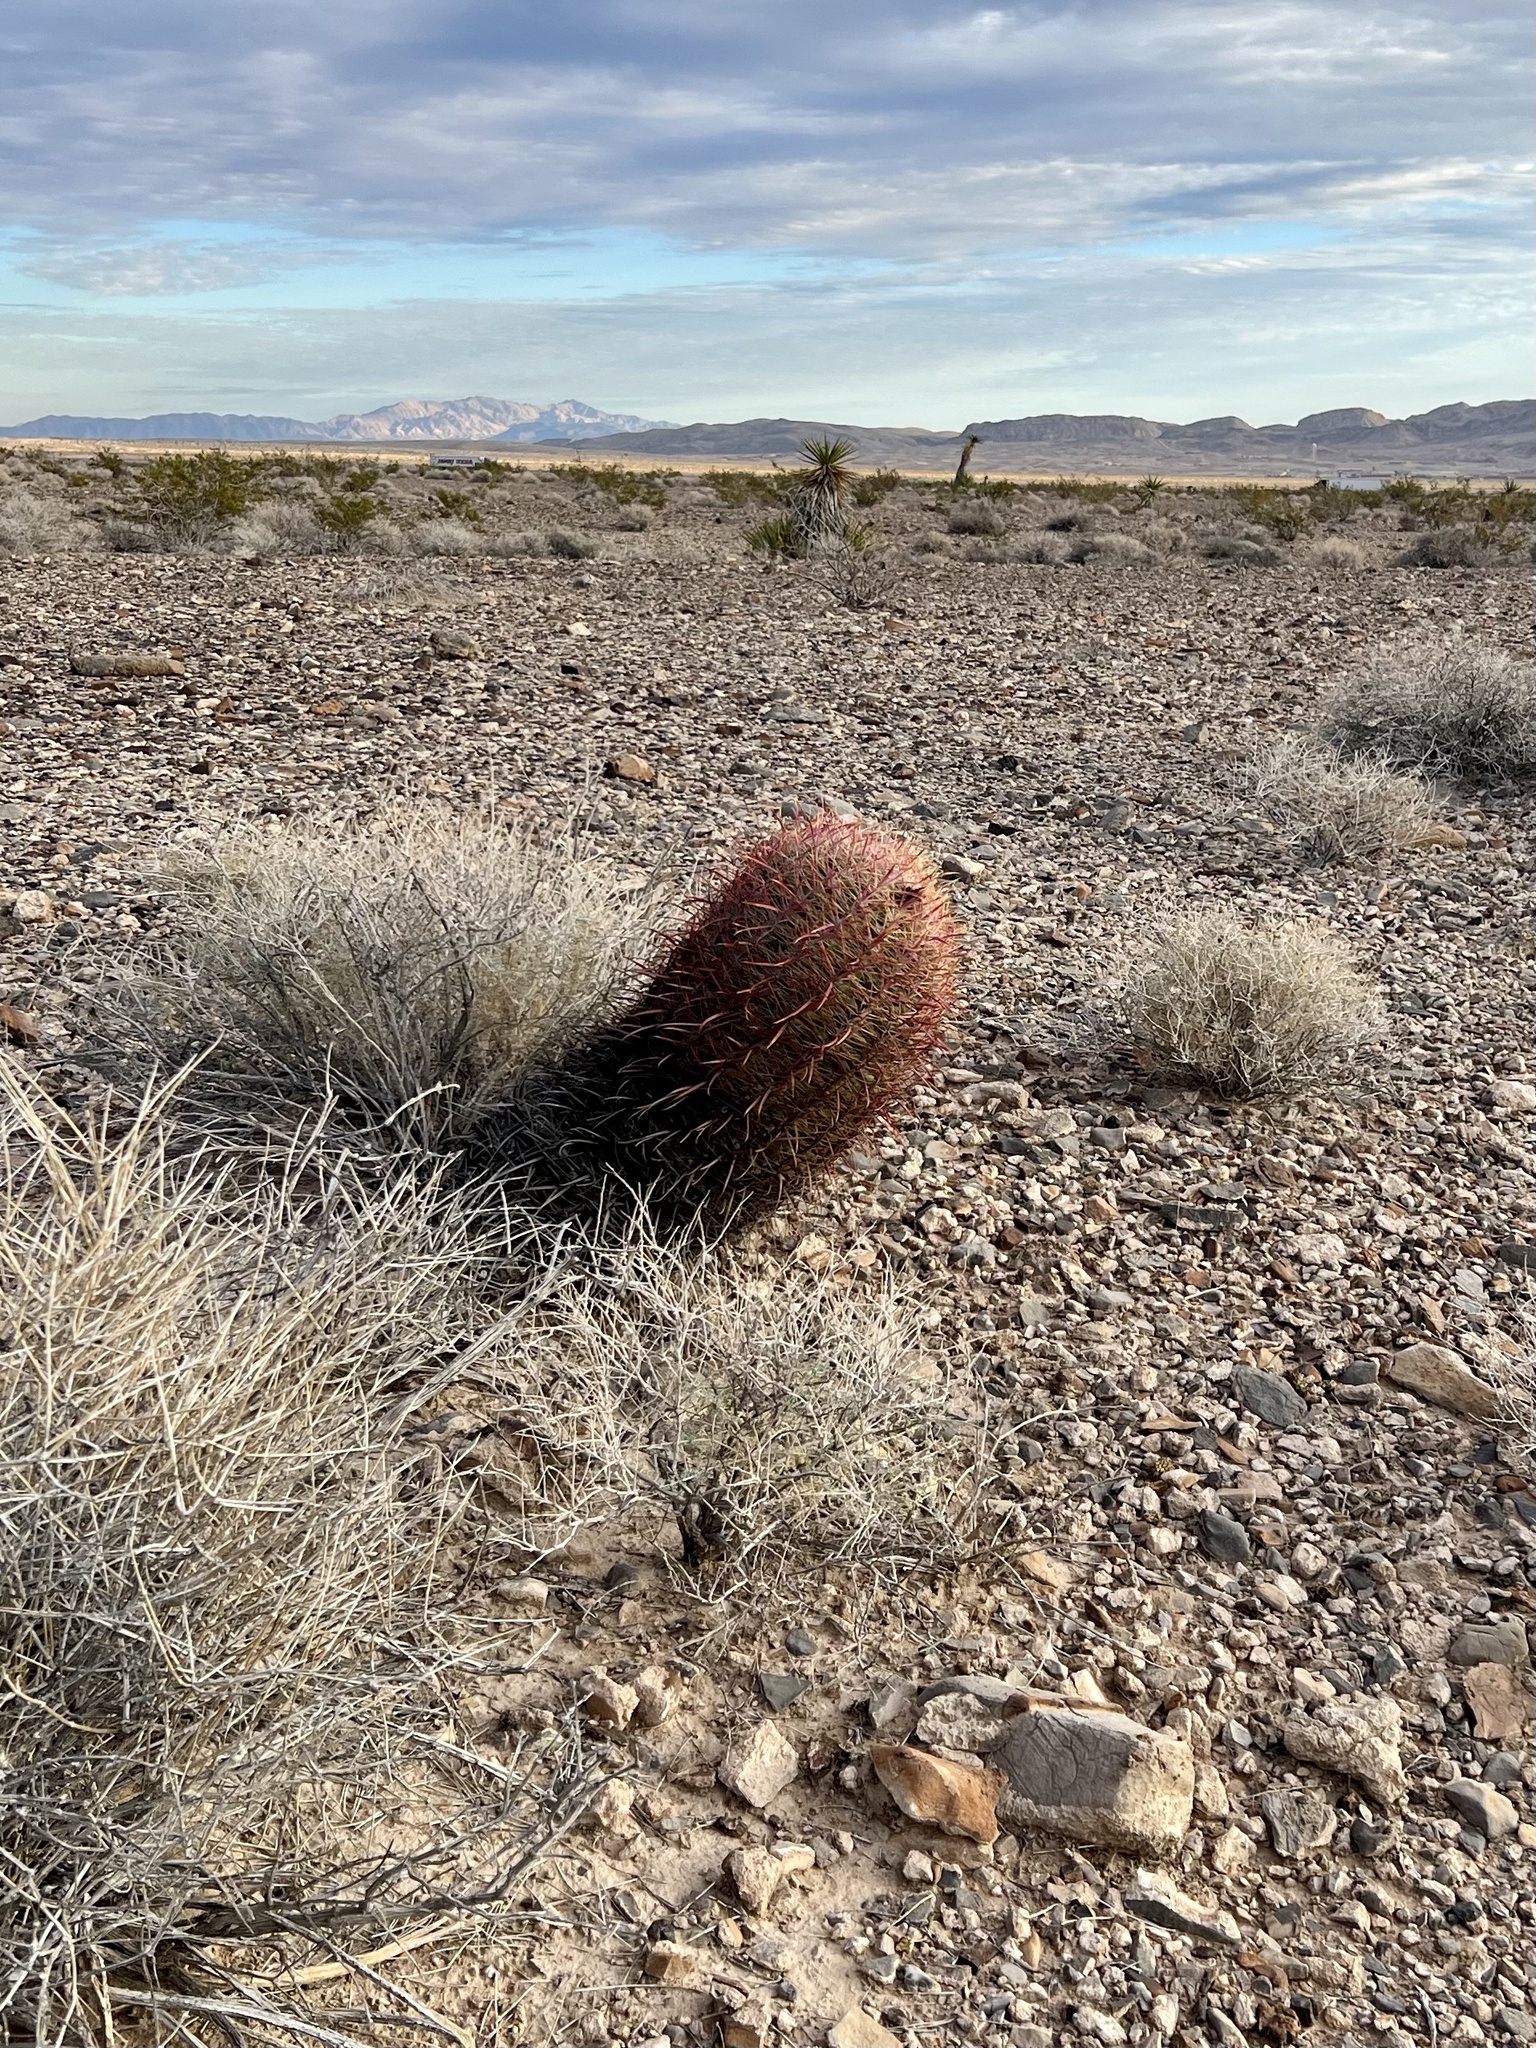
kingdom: Plantae
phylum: Tracheophyta
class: Magnoliopsida
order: Caryophyllales
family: Cactaceae
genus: Ferocactus
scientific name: Ferocactus cylindraceus
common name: California barrel cactus
